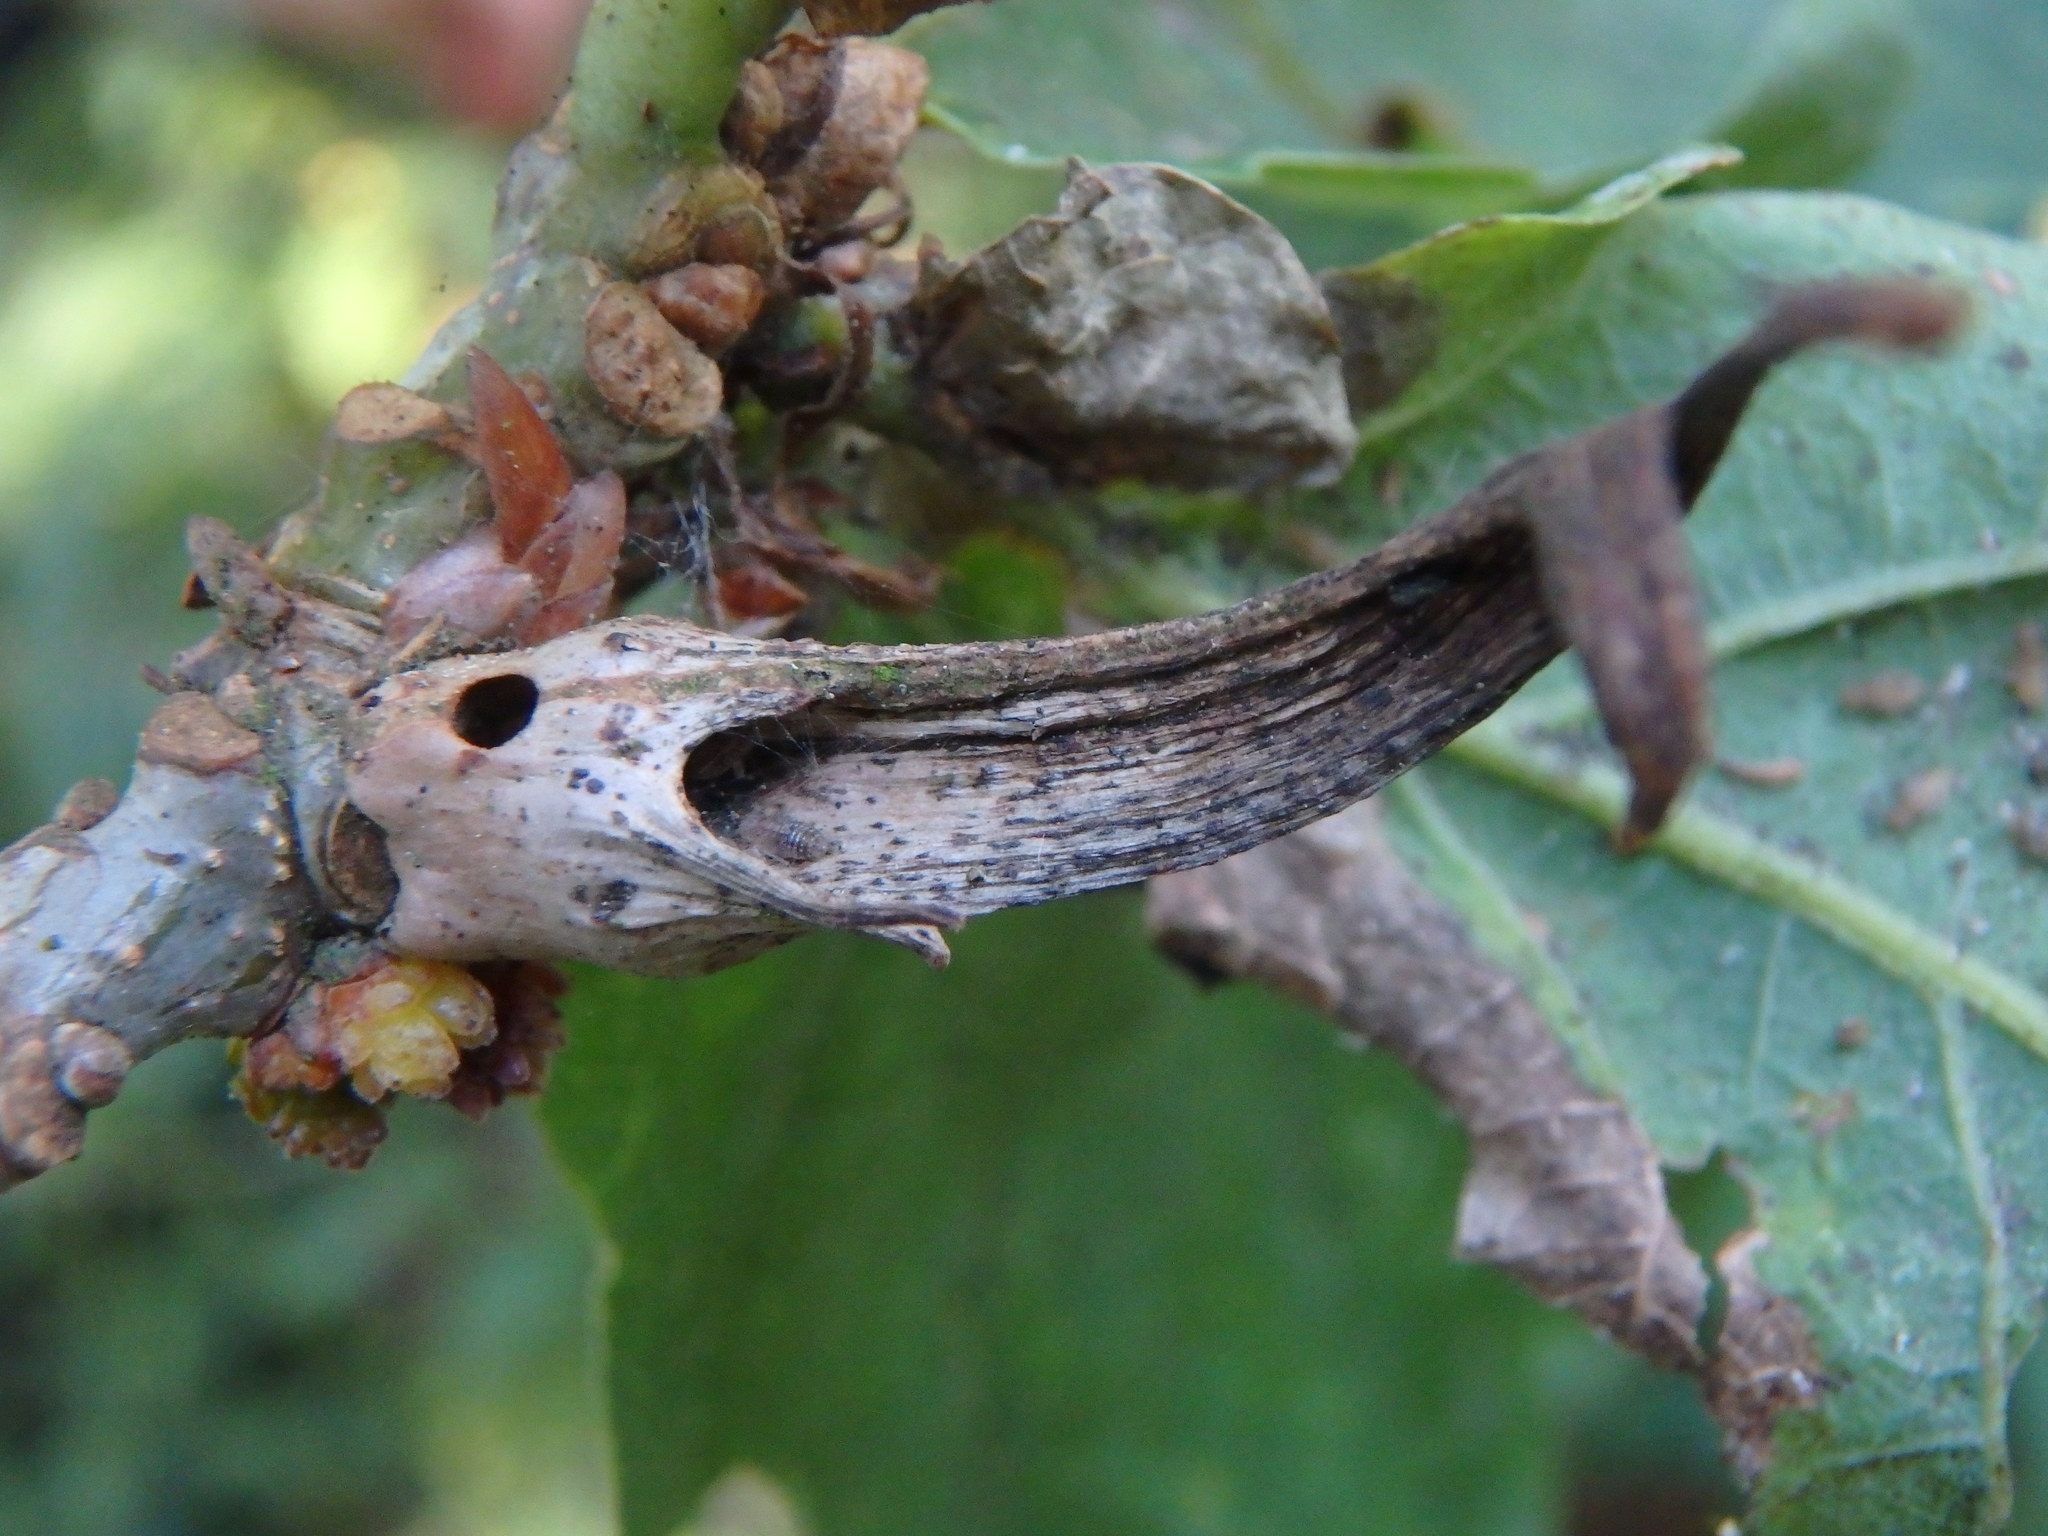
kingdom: Animalia
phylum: Arthropoda
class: Insecta
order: Hymenoptera
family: Cynipidae
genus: Andricus
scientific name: Andricus aries
